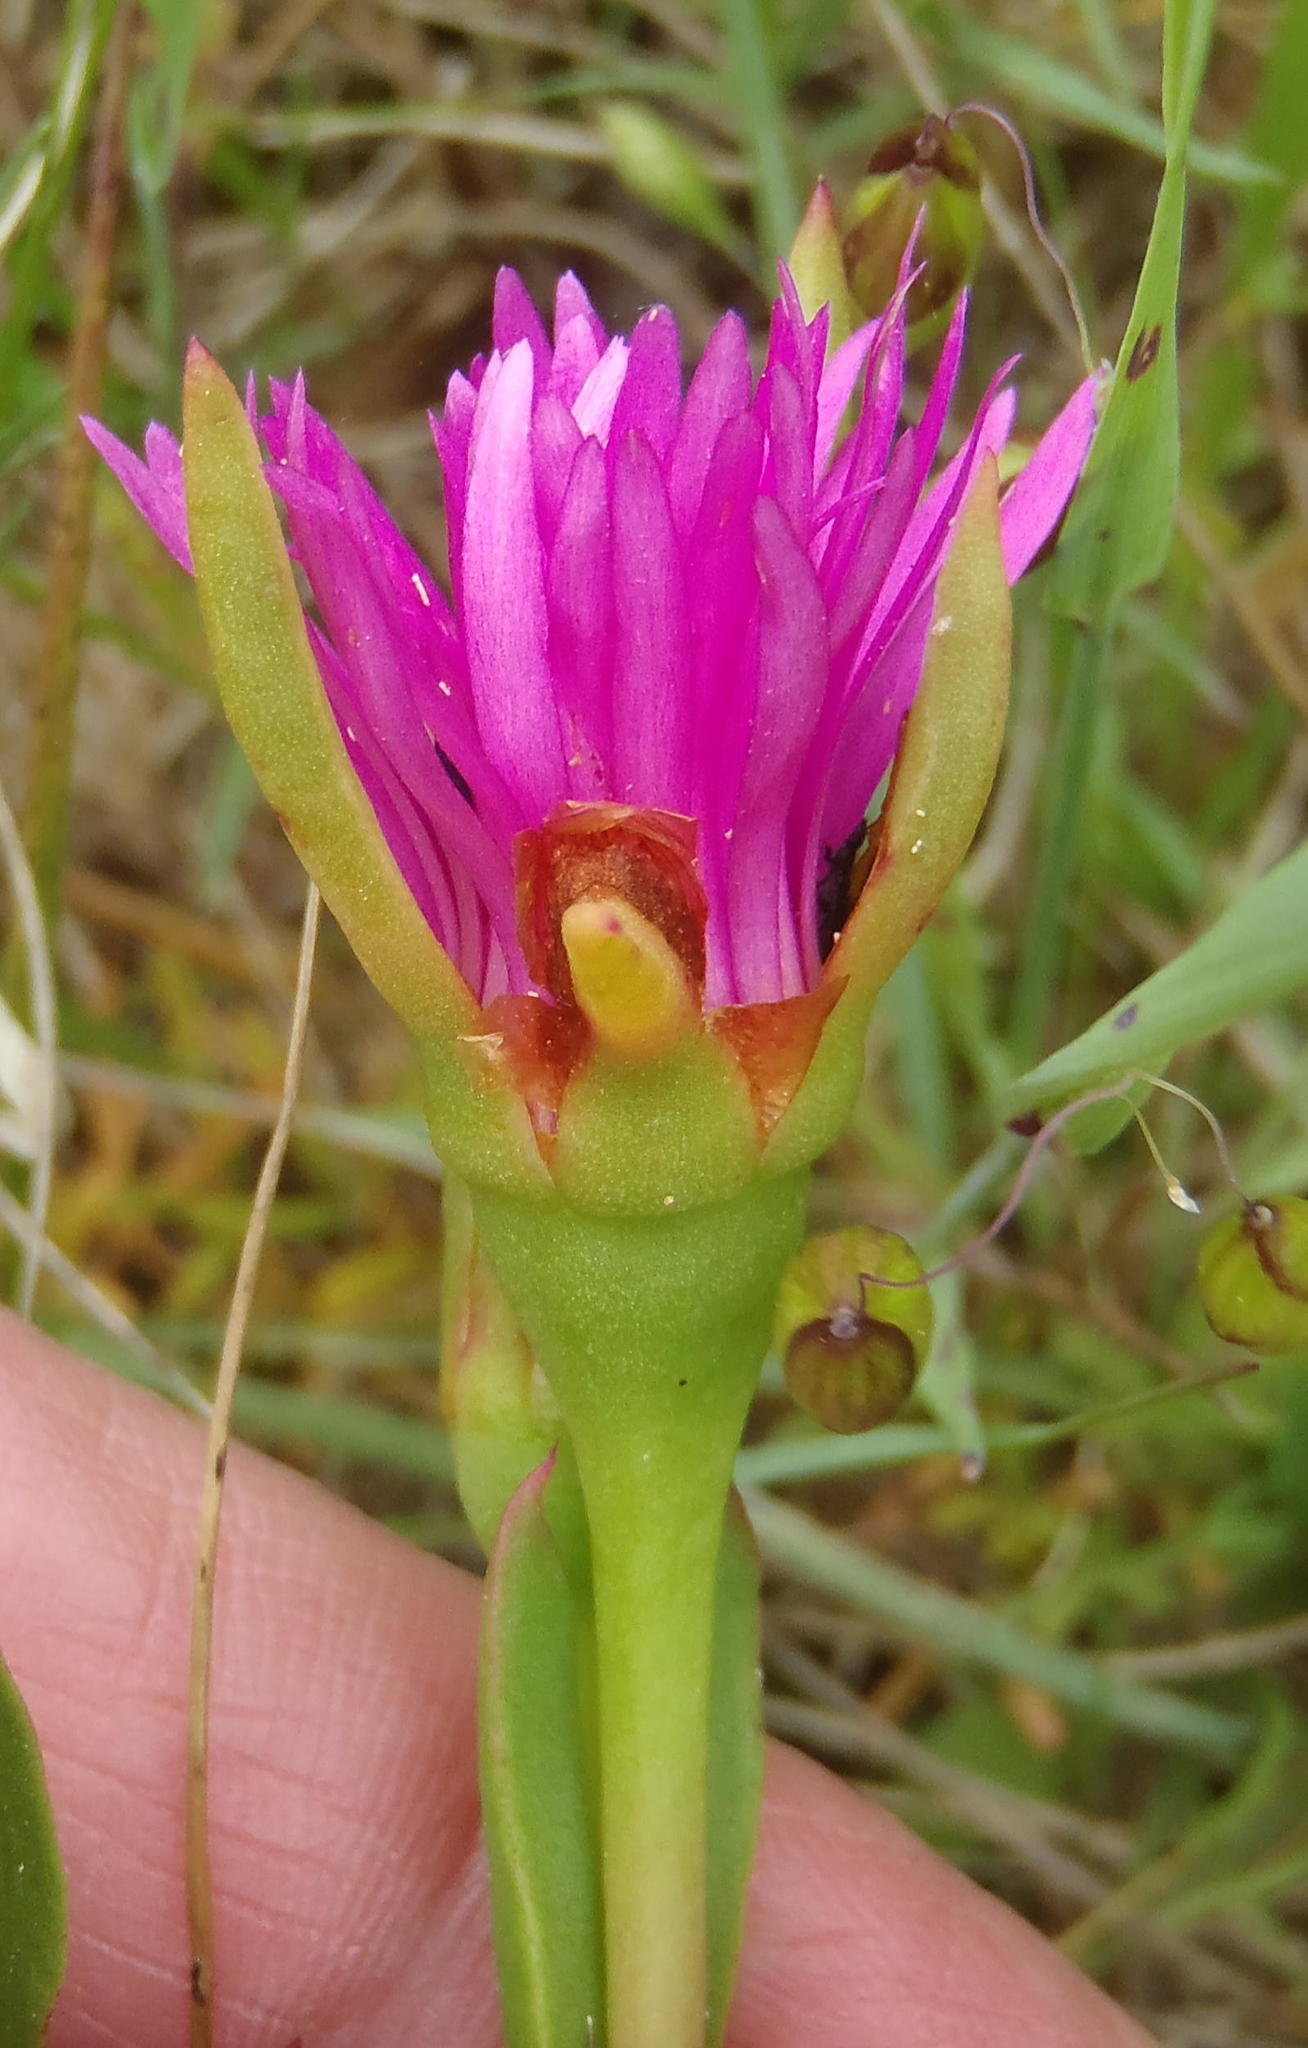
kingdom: Plantae
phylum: Tracheophyta
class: Magnoliopsida
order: Caryophyllales
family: Aizoaceae
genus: Lampranthus
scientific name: Lampranthus spectabilis
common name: Trailing iceplant
